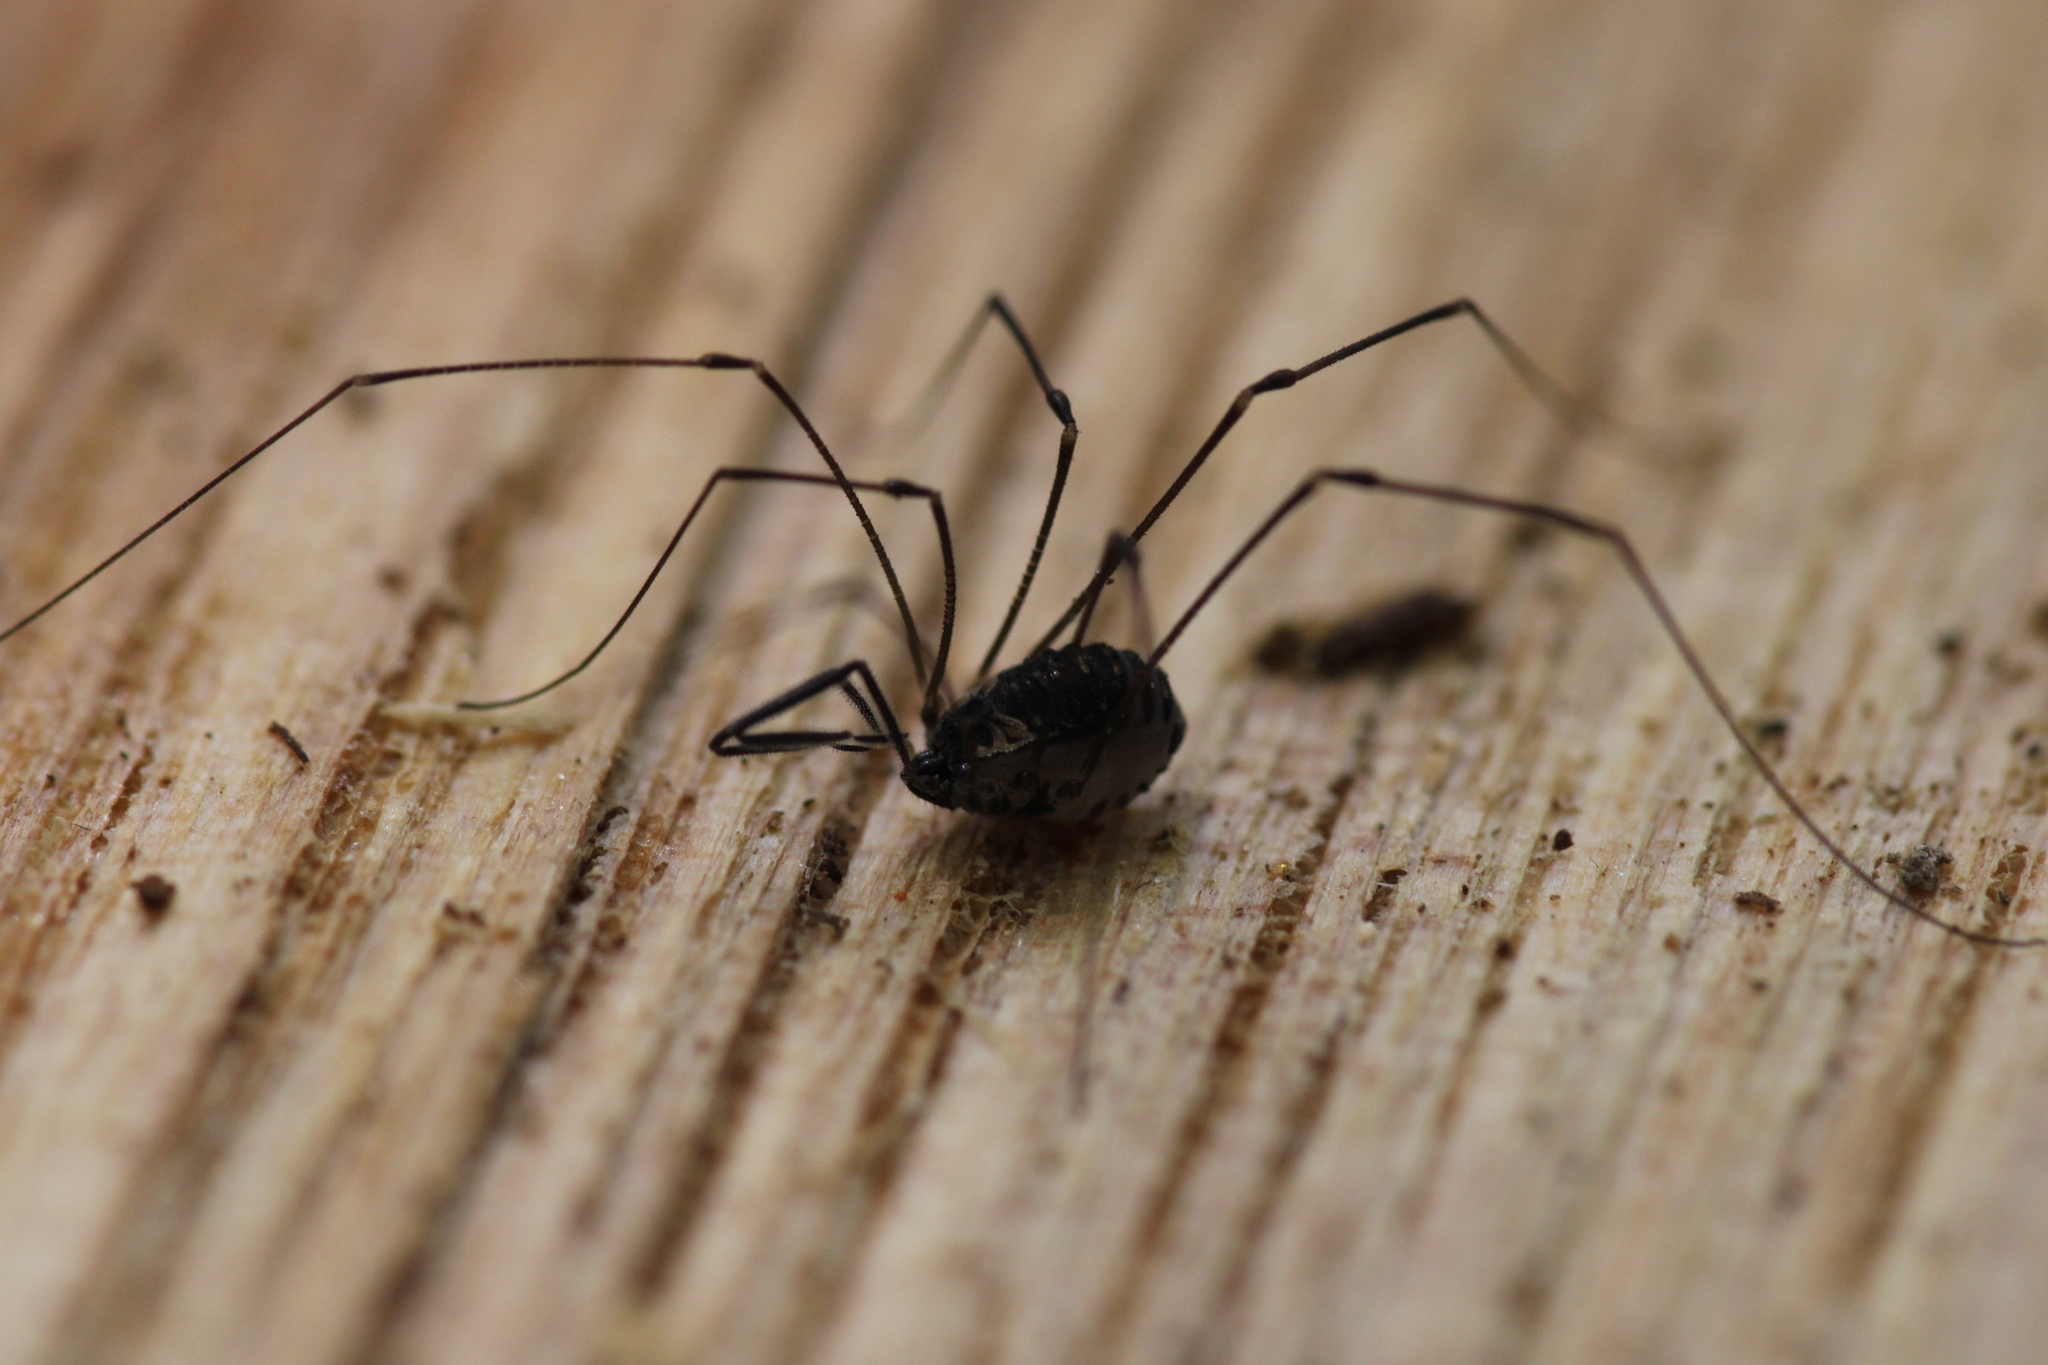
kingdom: Animalia
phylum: Arthropoda
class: Arachnida
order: Opiliones
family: Nemastomatidae
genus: Mitostoma
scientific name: Mitostoma chrysomelas
